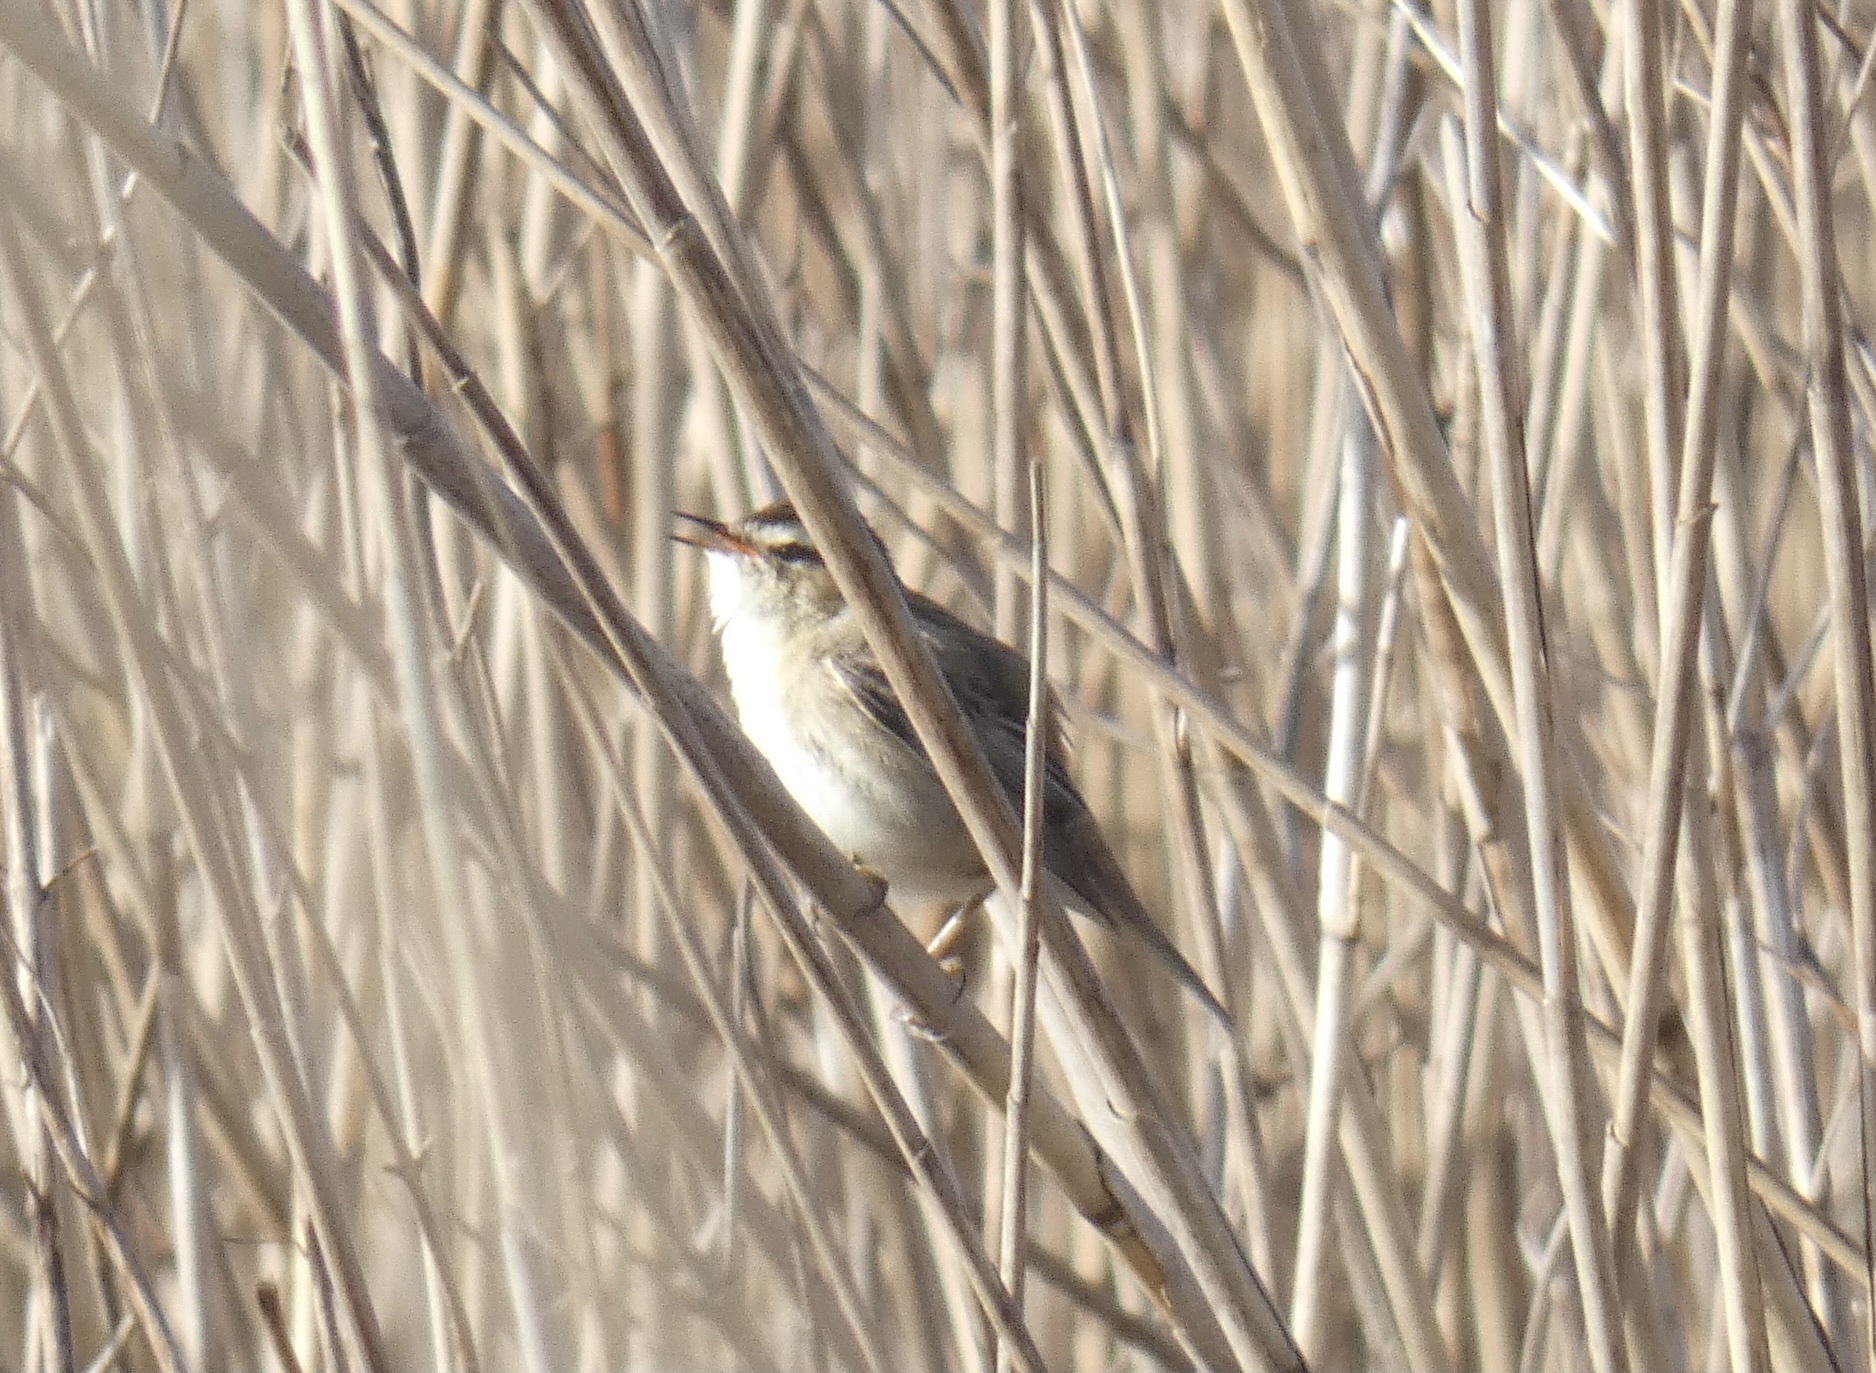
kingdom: Animalia
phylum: Chordata
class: Aves
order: Passeriformes
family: Acrocephalidae
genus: Acrocephalus
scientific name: Acrocephalus schoenobaenus
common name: Sedge warbler
